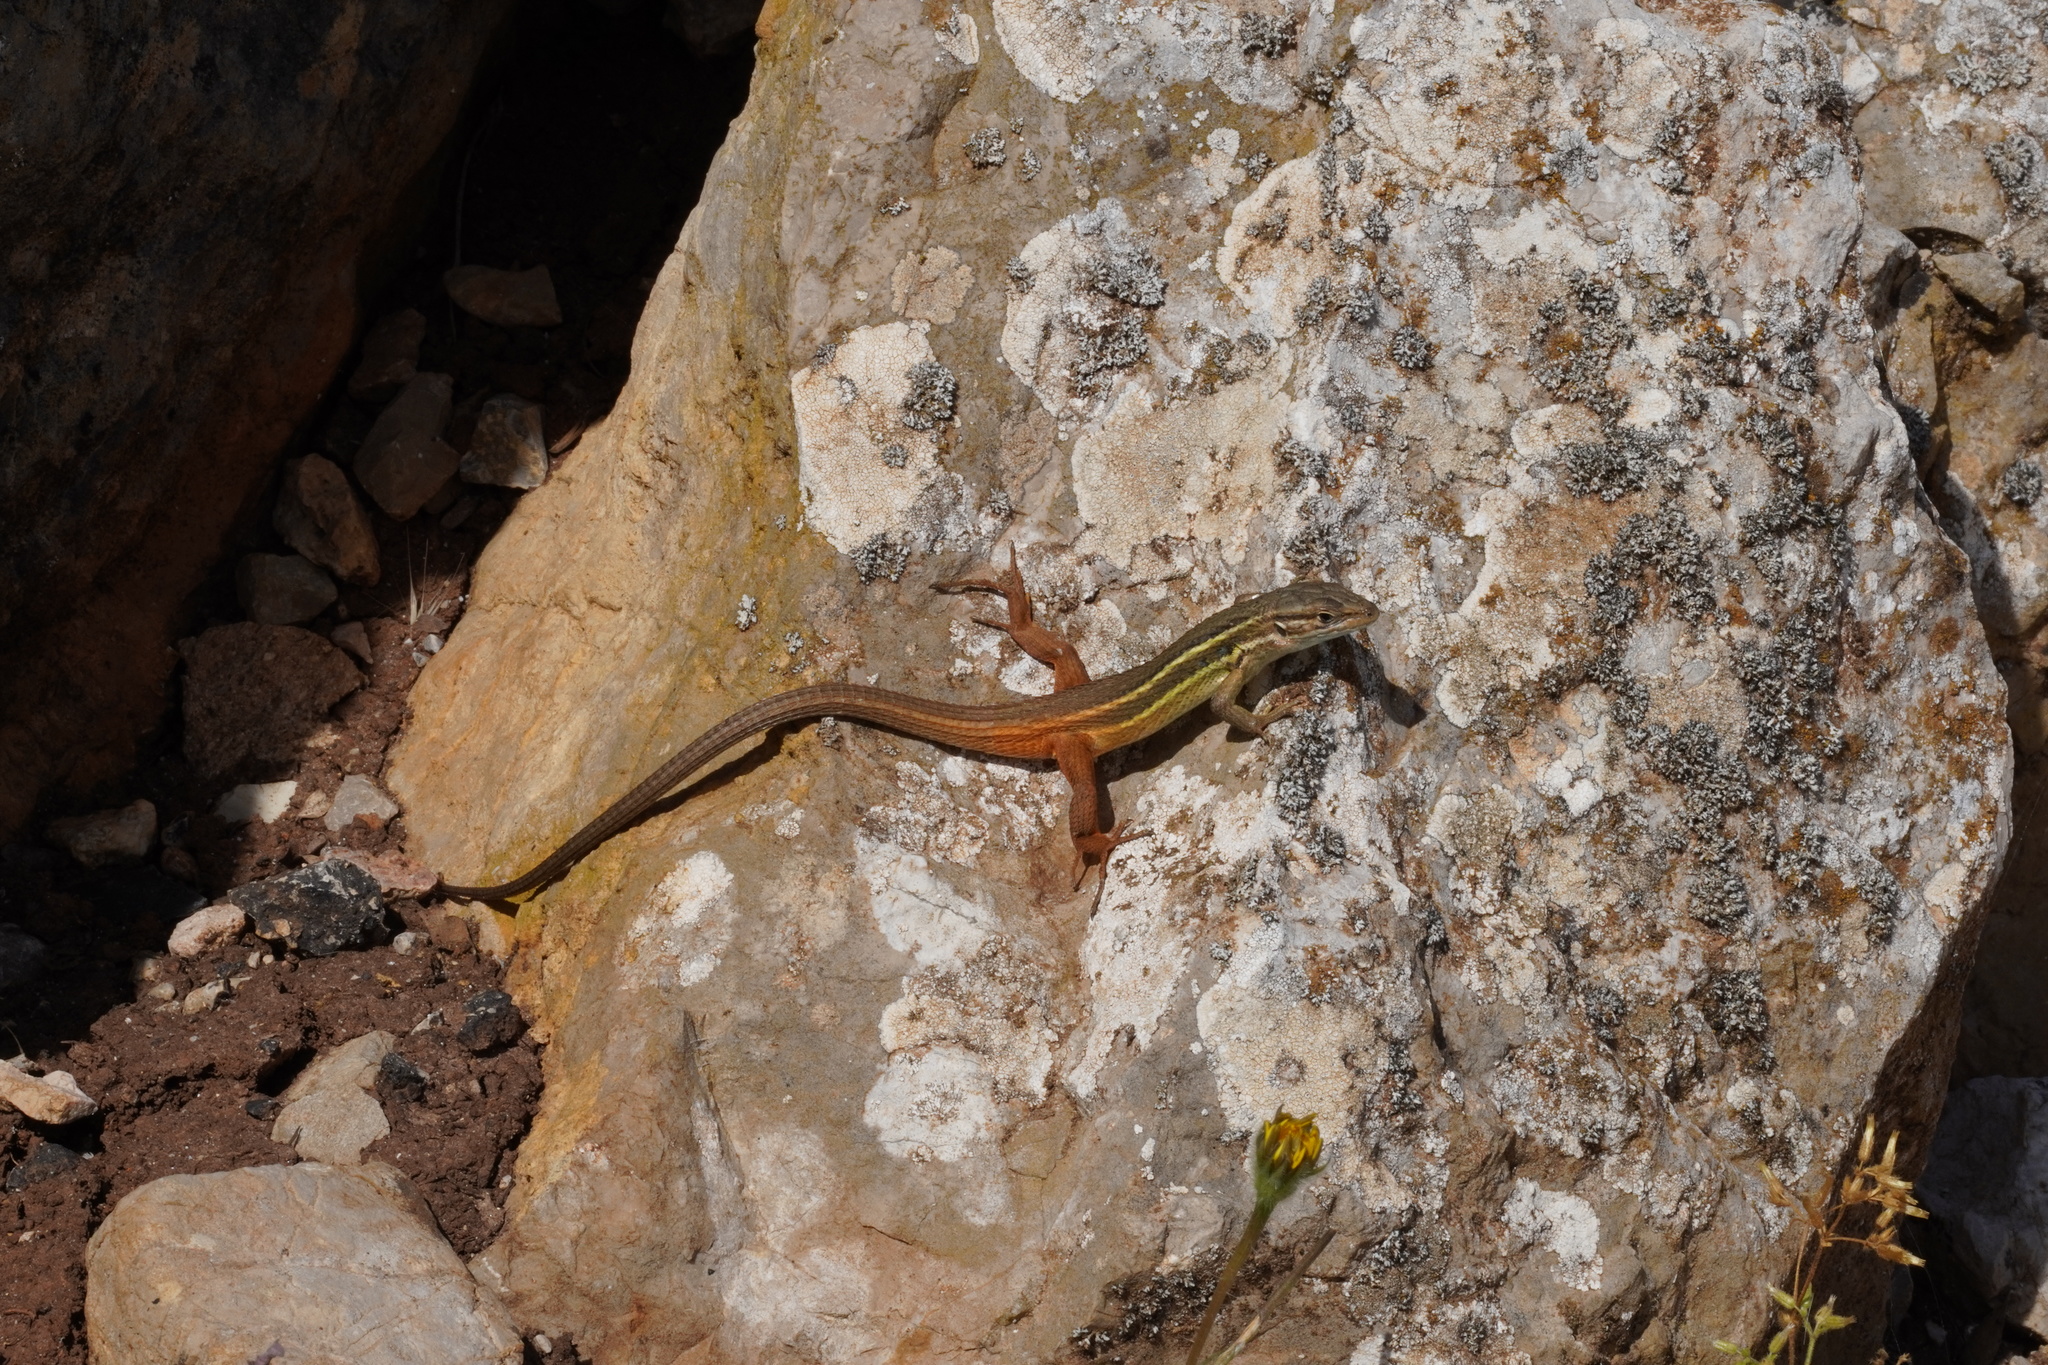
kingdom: Animalia
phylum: Chordata
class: Squamata
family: Lacertidae
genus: Psammodromus
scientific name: Psammodromus algirus
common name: Algerian psammodromus
